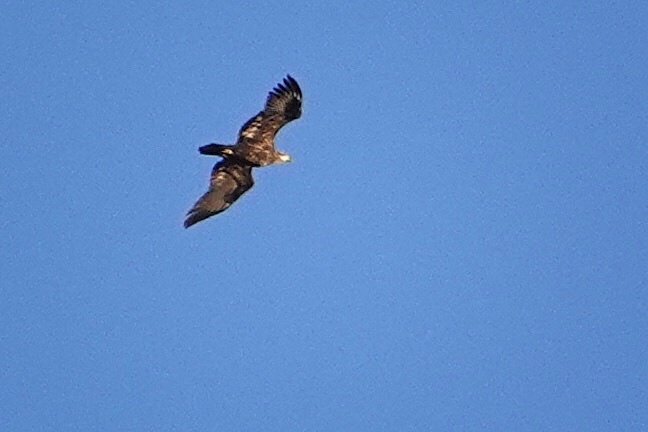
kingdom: Animalia
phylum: Chordata
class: Aves
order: Accipitriformes
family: Accipitridae
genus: Haliaeetus
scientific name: Haliaeetus leucocephalus
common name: Bald eagle
